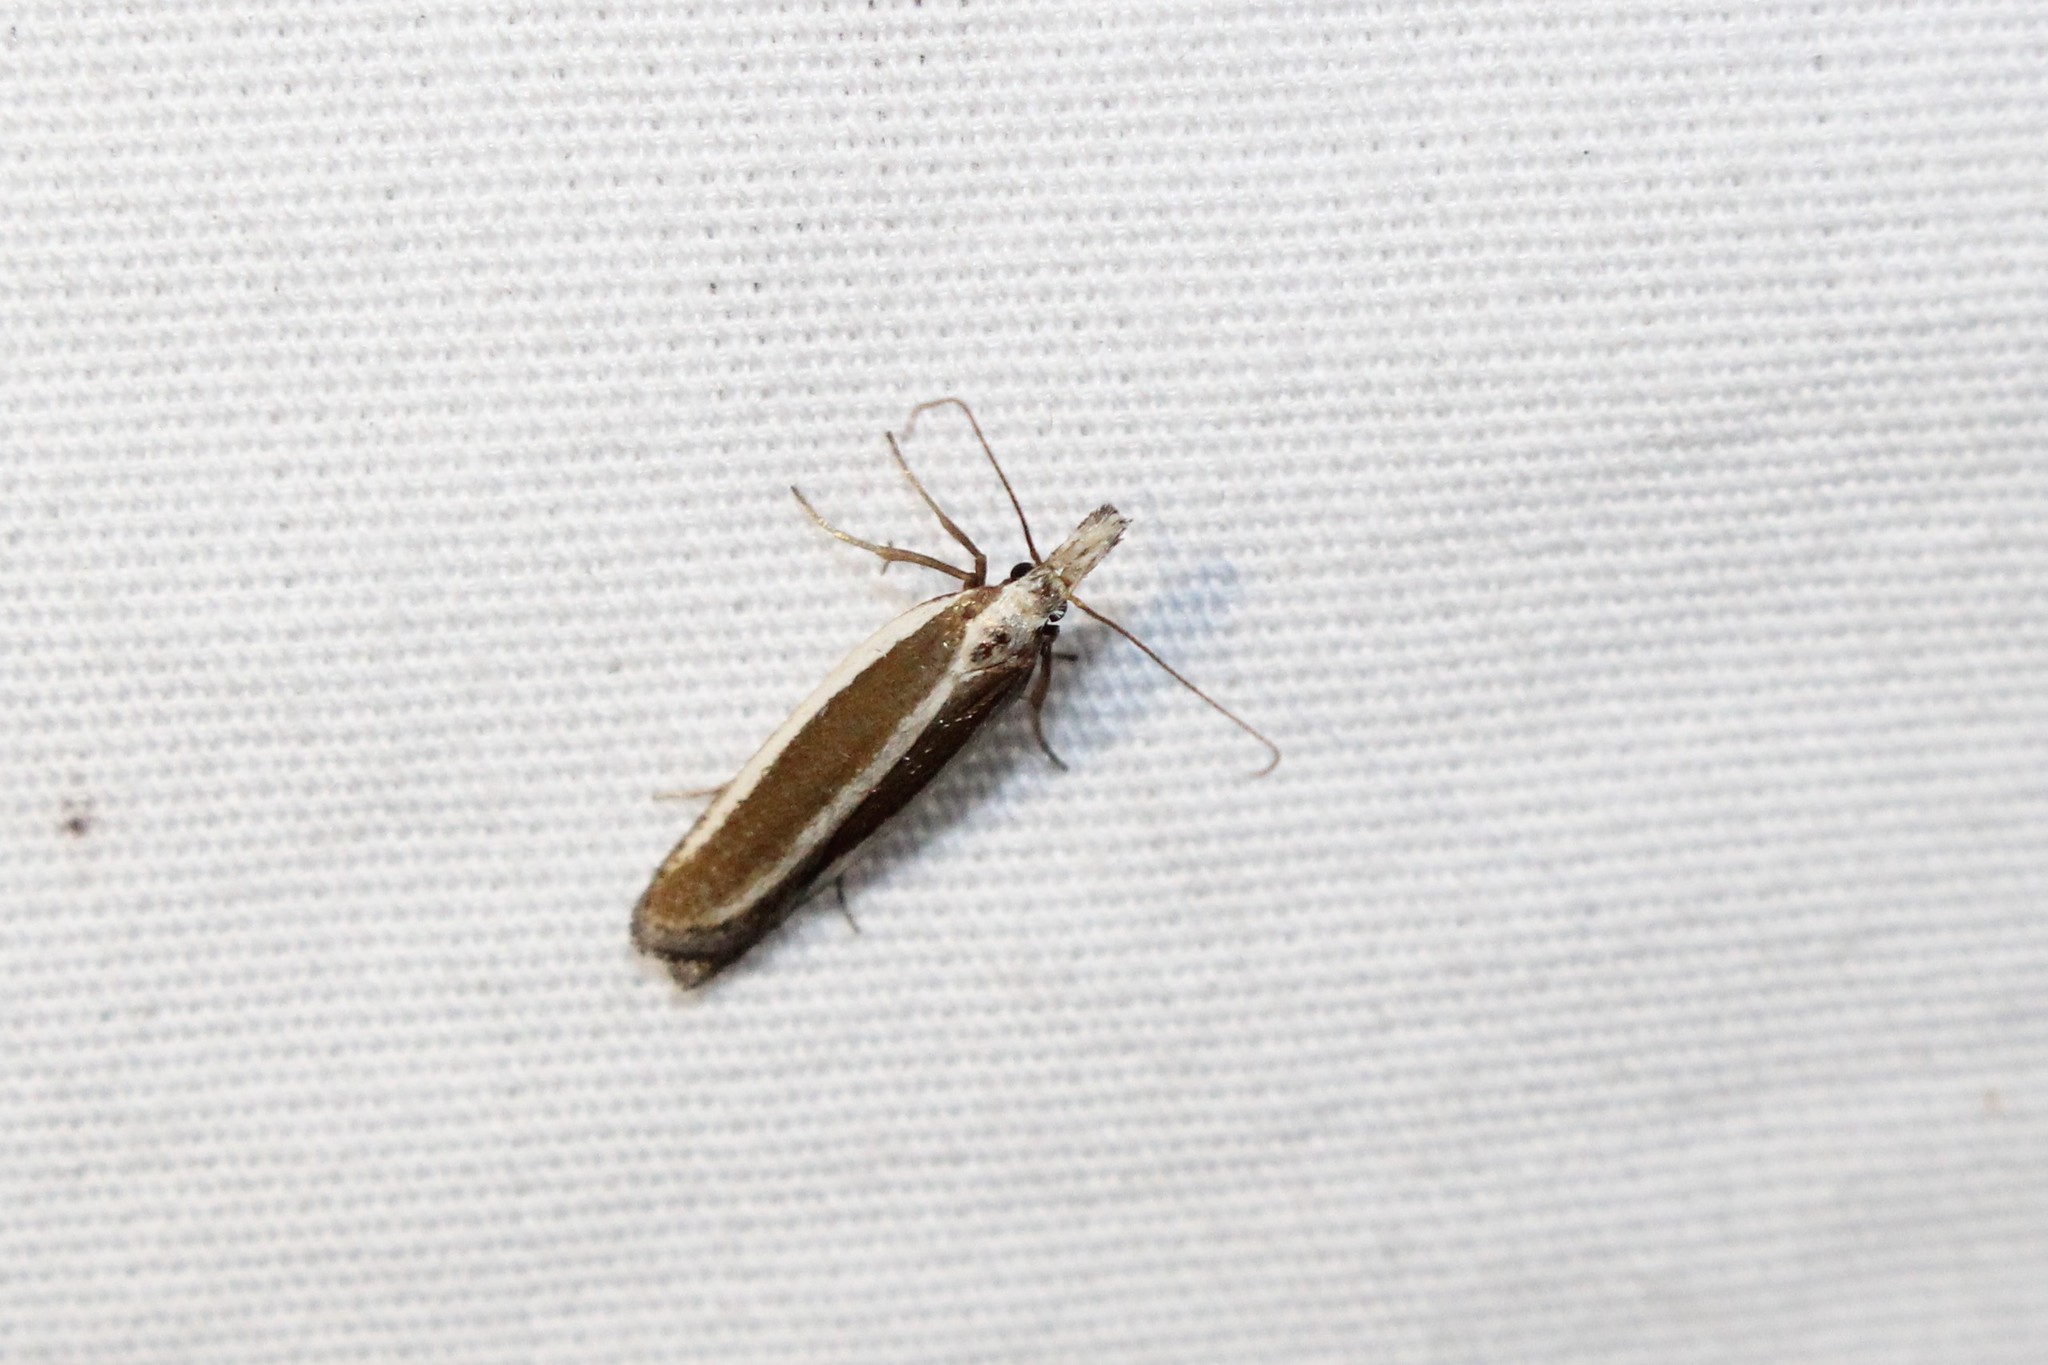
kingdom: Animalia
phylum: Arthropoda
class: Insecta
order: Lepidoptera
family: Gelechiidae
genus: Dichomeris
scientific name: Dichomeris marginella
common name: Juniper webworm
